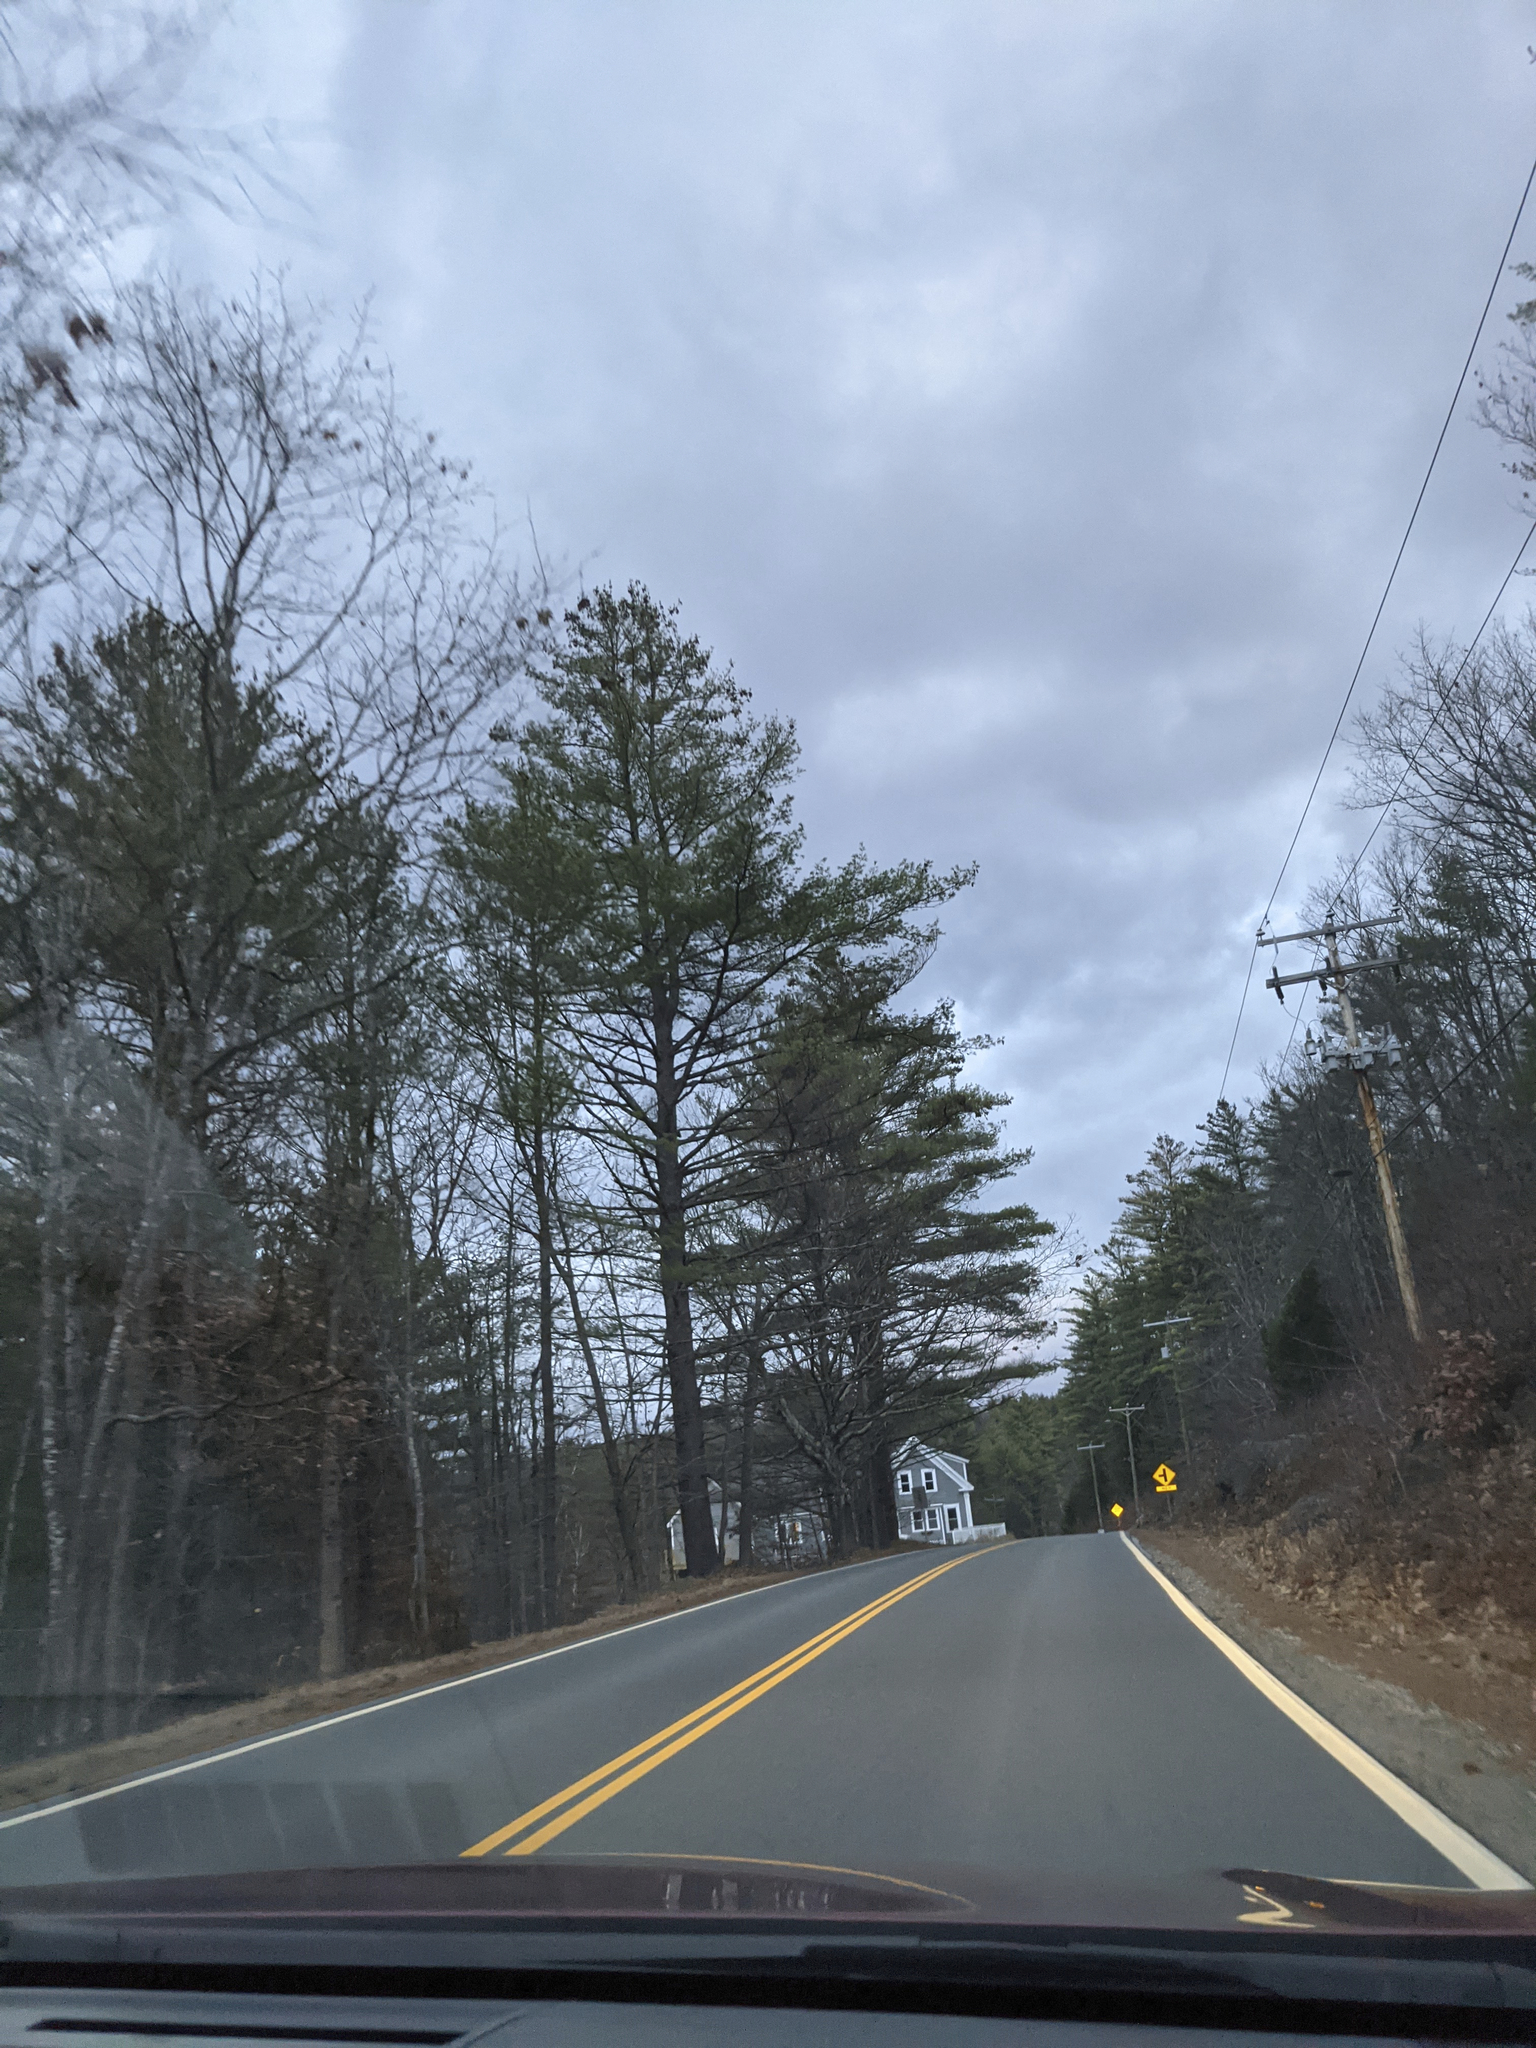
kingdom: Plantae
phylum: Tracheophyta
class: Pinopsida
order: Pinales
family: Pinaceae
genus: Pinus
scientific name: Pinus strobus
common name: Weymouth pine
